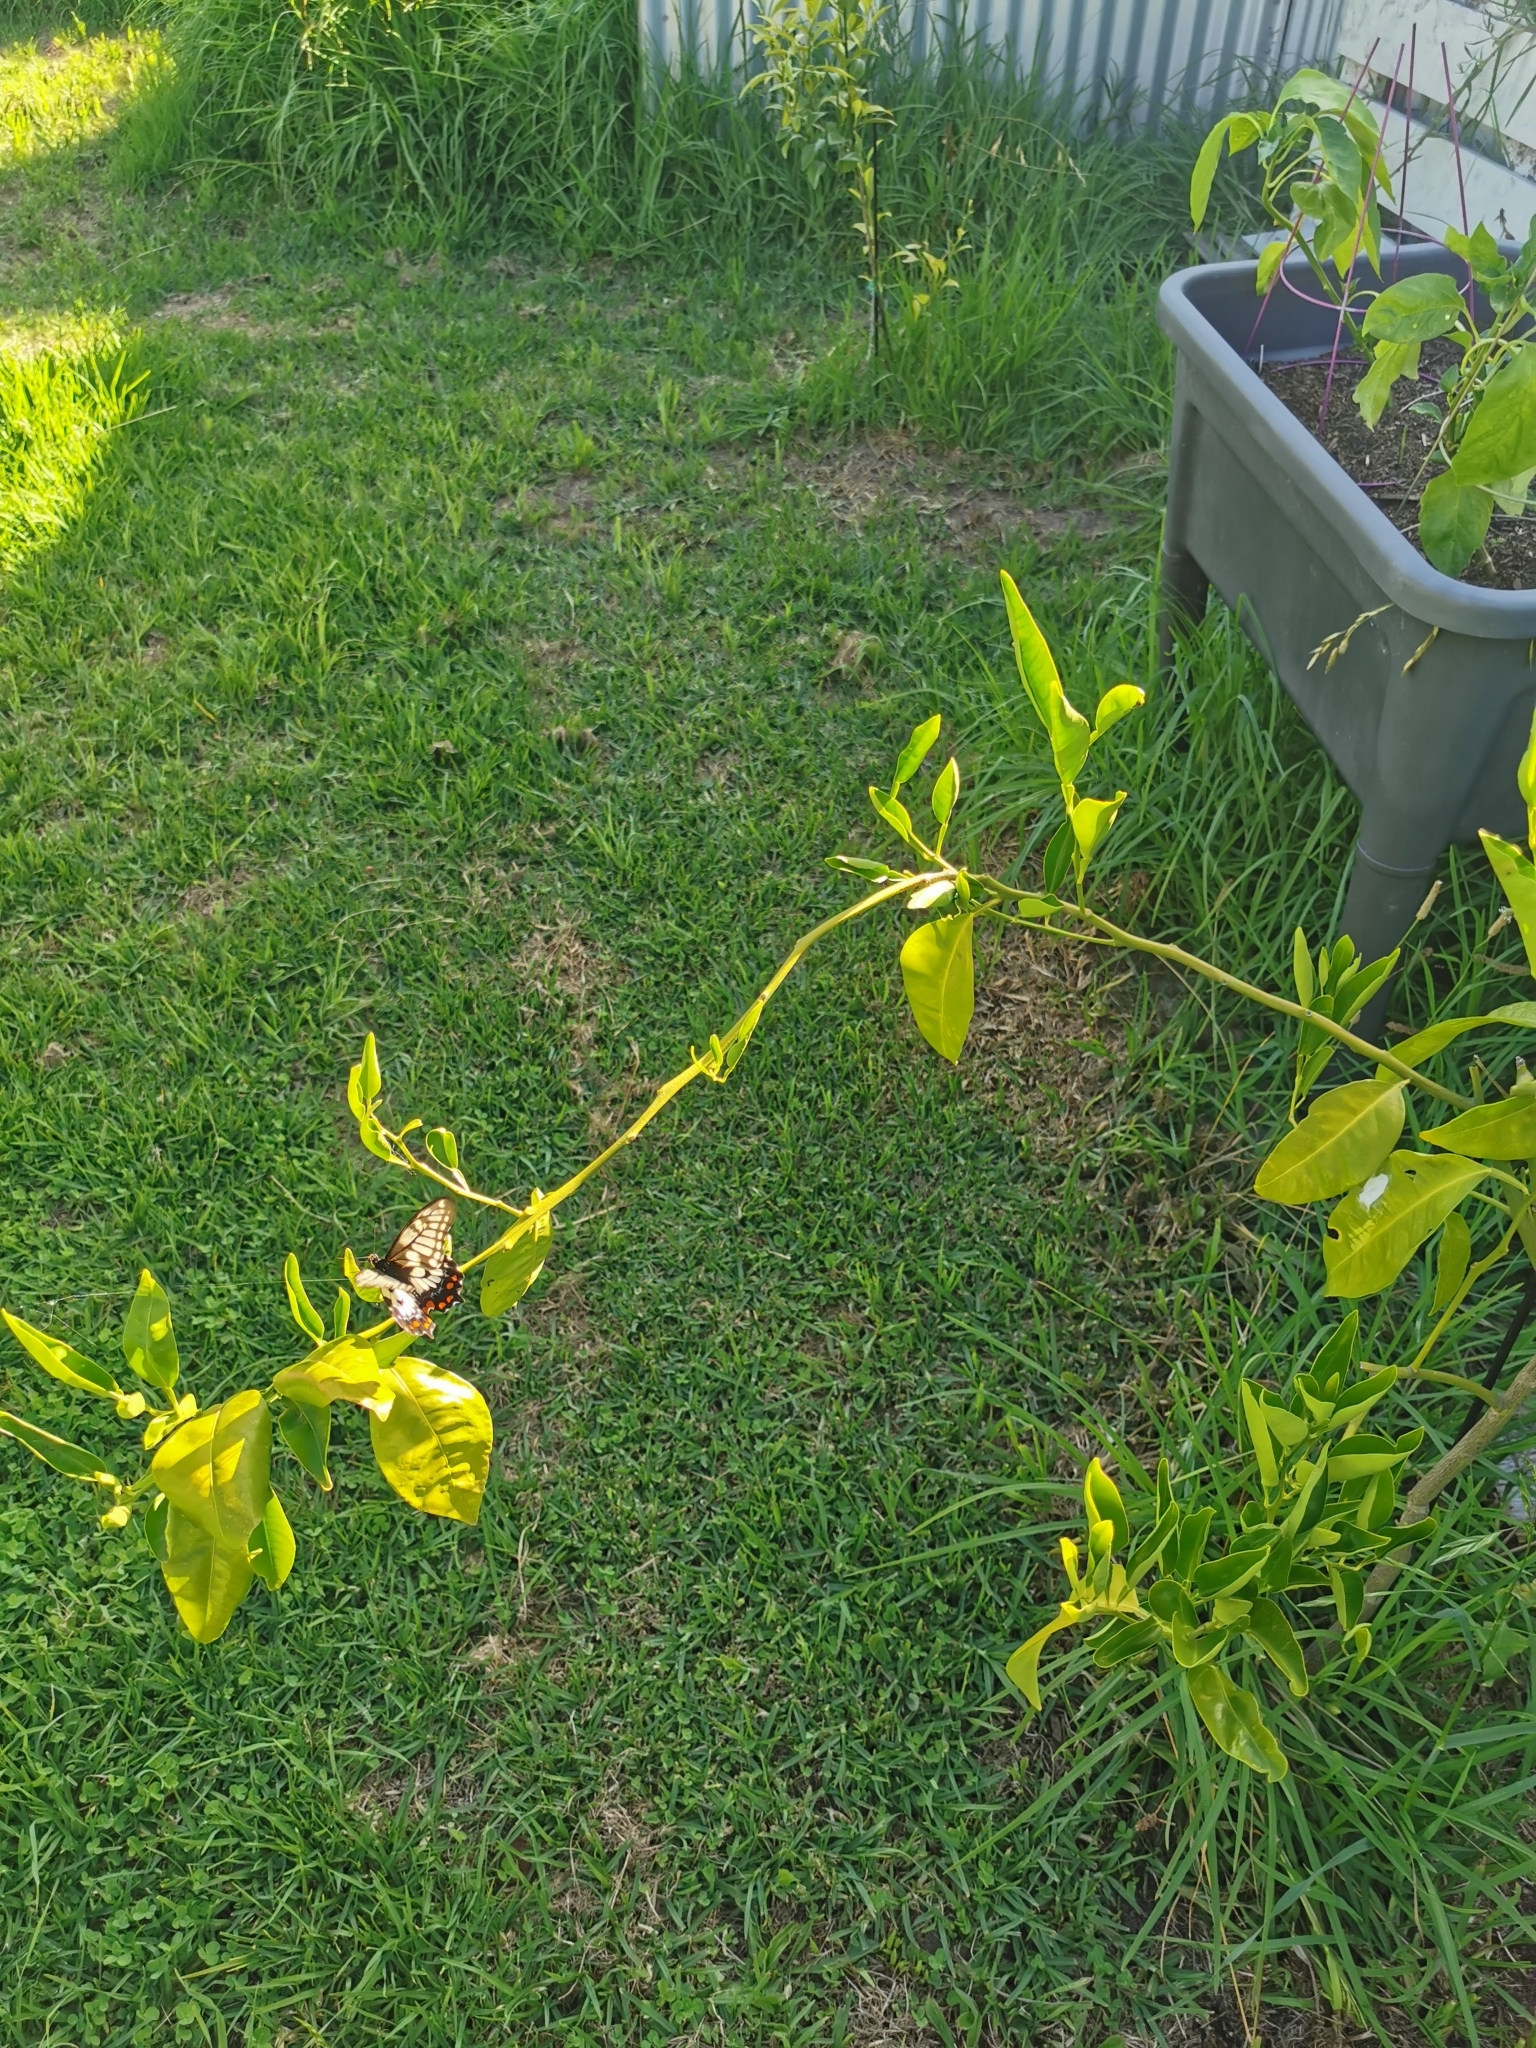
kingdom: Animalia
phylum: Arthropoda
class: Insecta
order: Lepidoptera
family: Papilionidae
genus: Papilio
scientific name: Papilio anactus
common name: Dingy swallowtail
